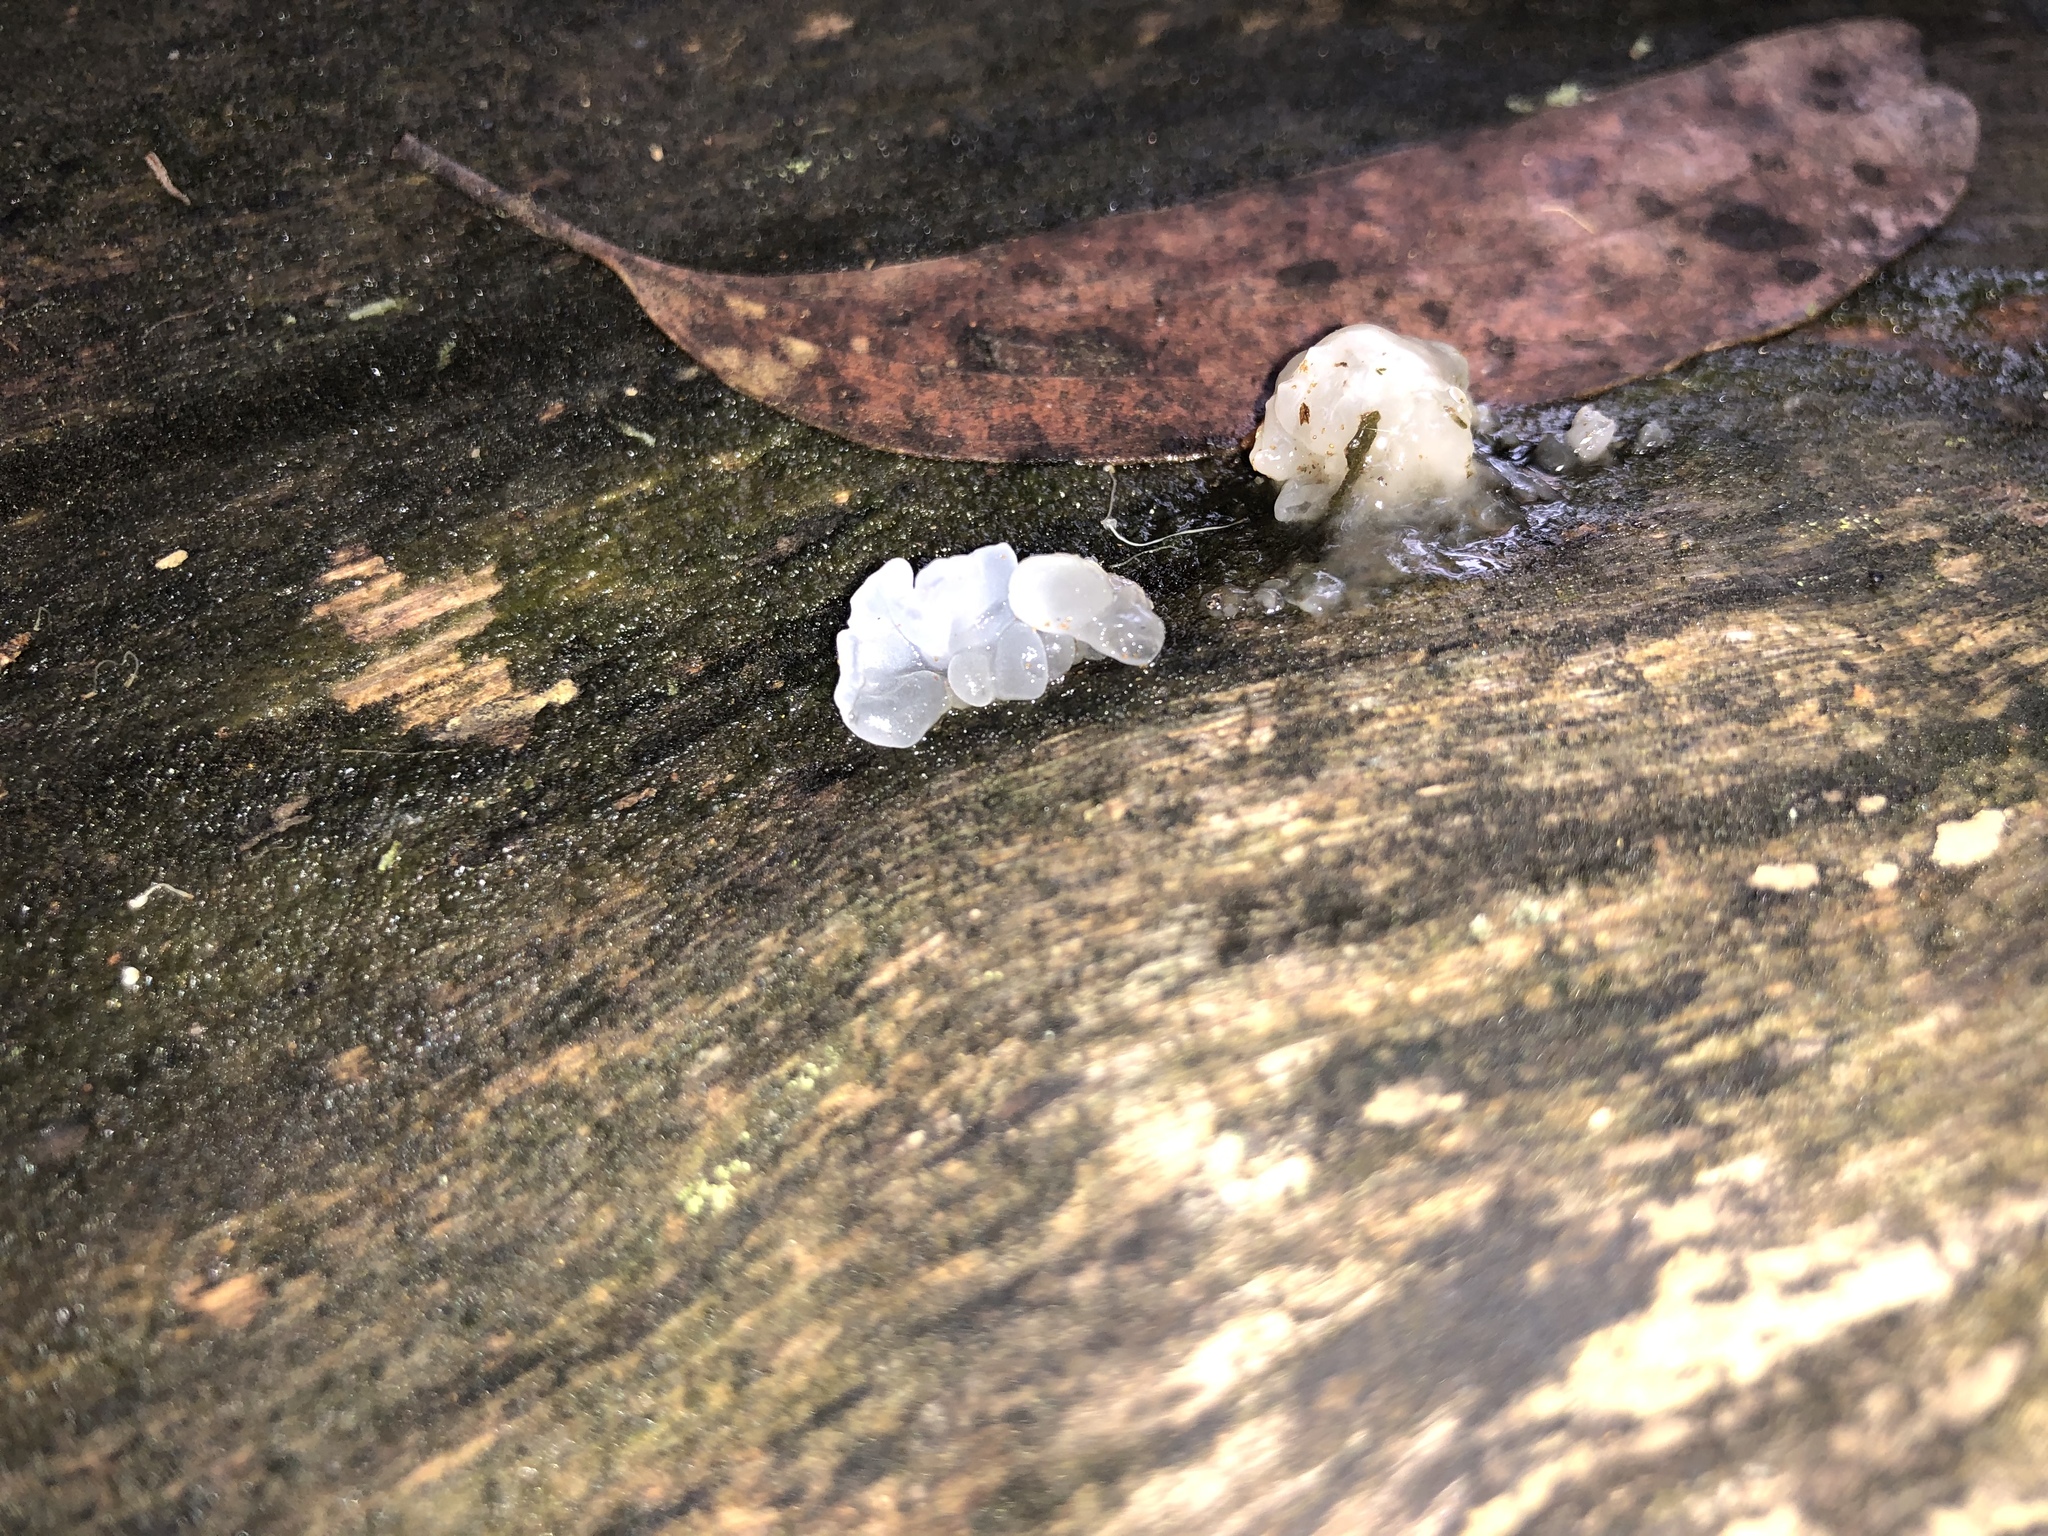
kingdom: Fungi
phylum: Basidiomycota
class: Tremellomycetes
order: Tremellales
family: Tremellaceae
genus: Tremella
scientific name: Tremella fuciformis
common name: Snow fungus
